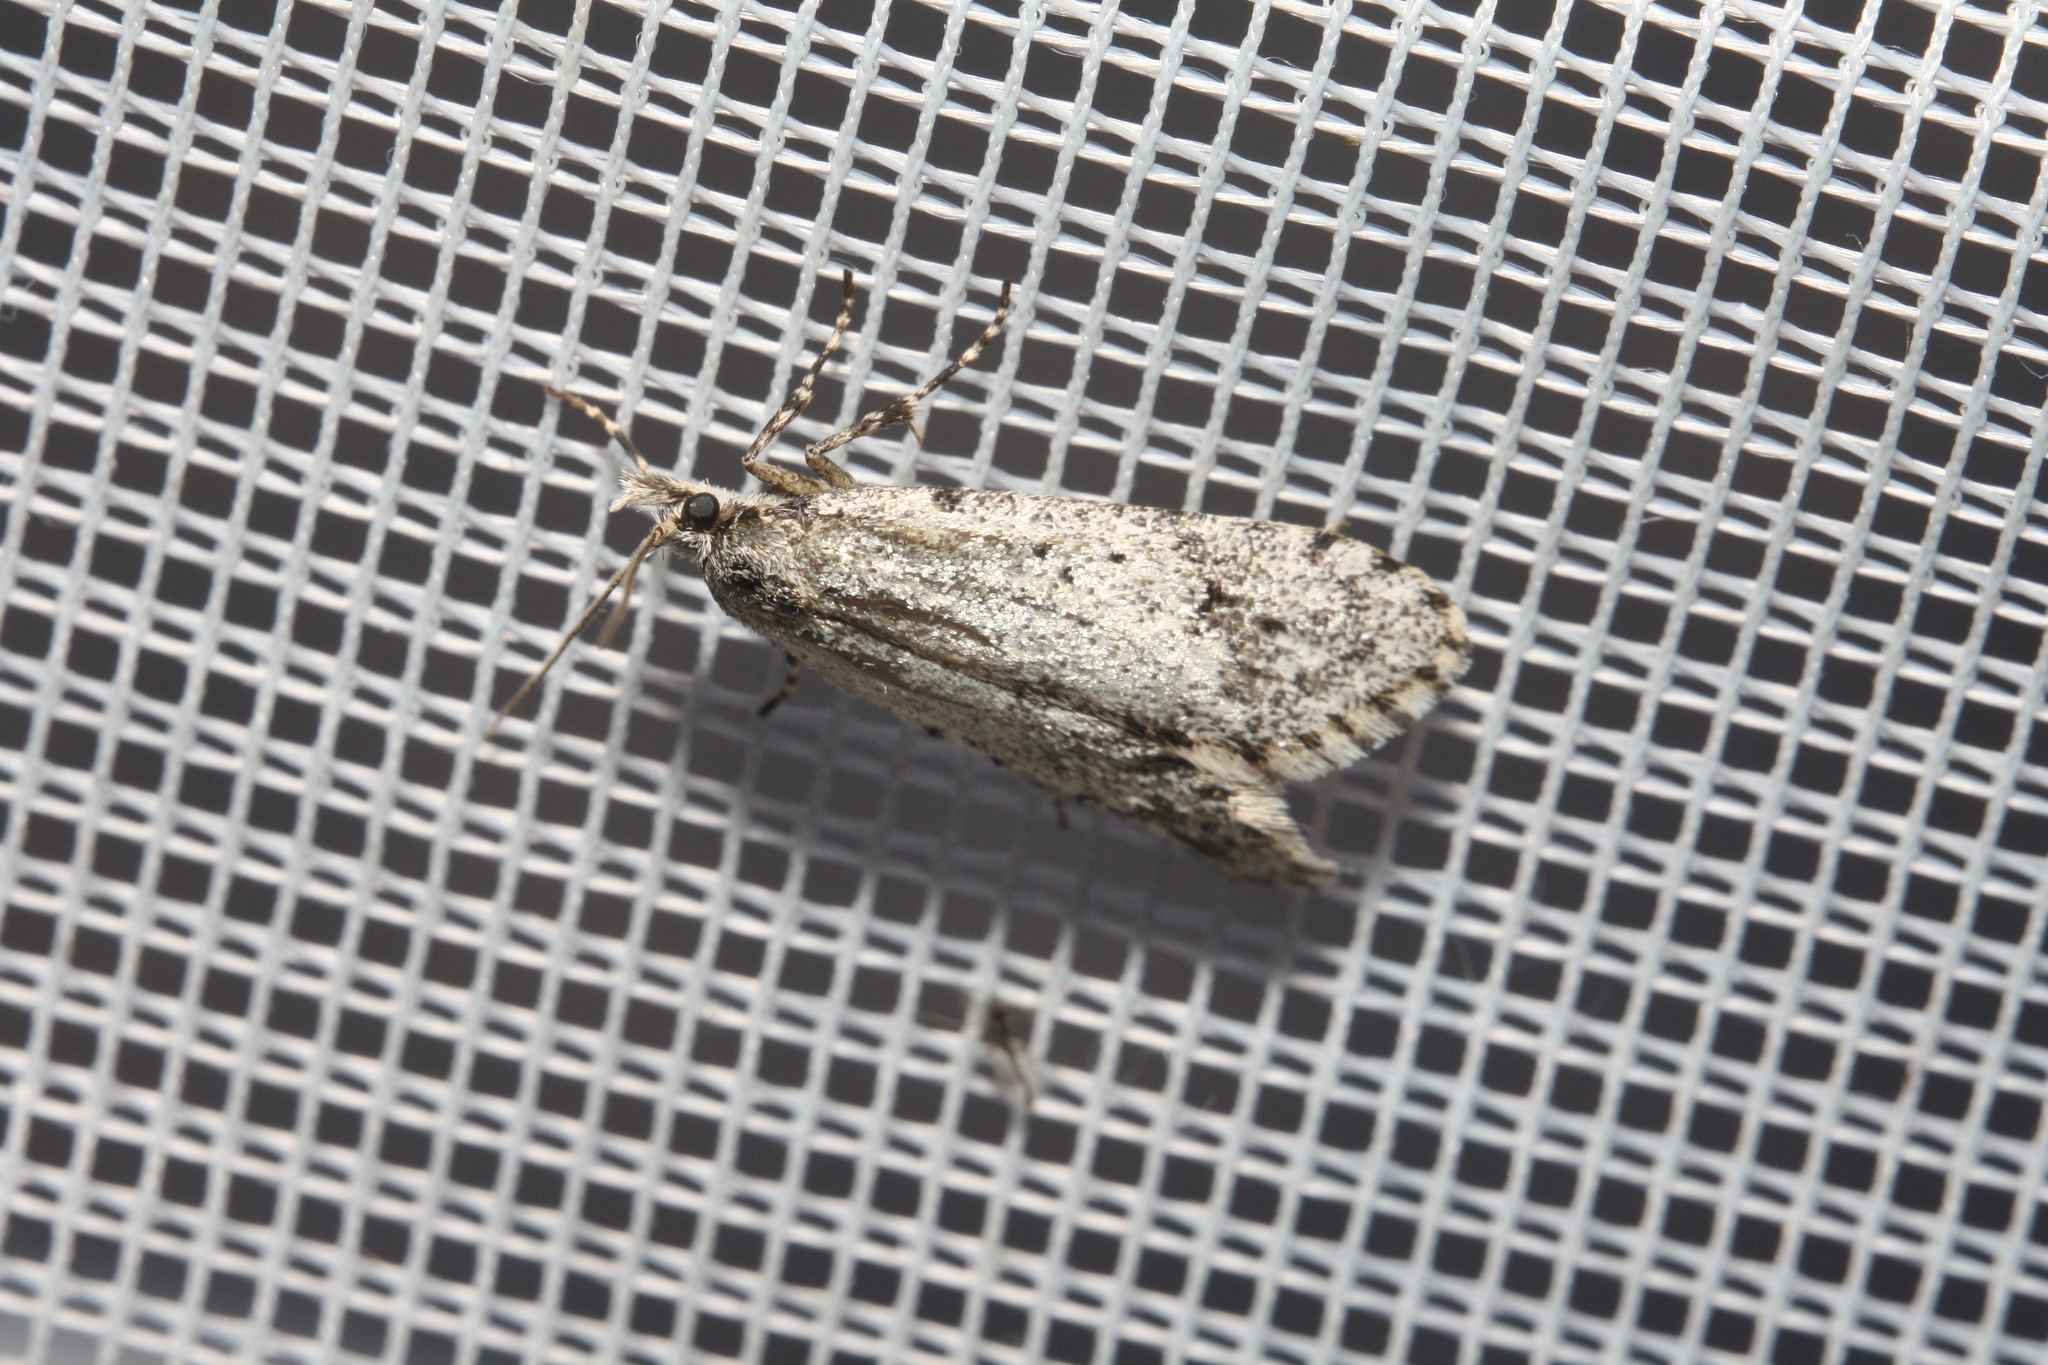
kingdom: Animalia
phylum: Arthropoda
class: Insecta
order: Lepidoptera
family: Lypusidae
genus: Diurnea
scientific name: Diurnea fagella
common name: March tubic
